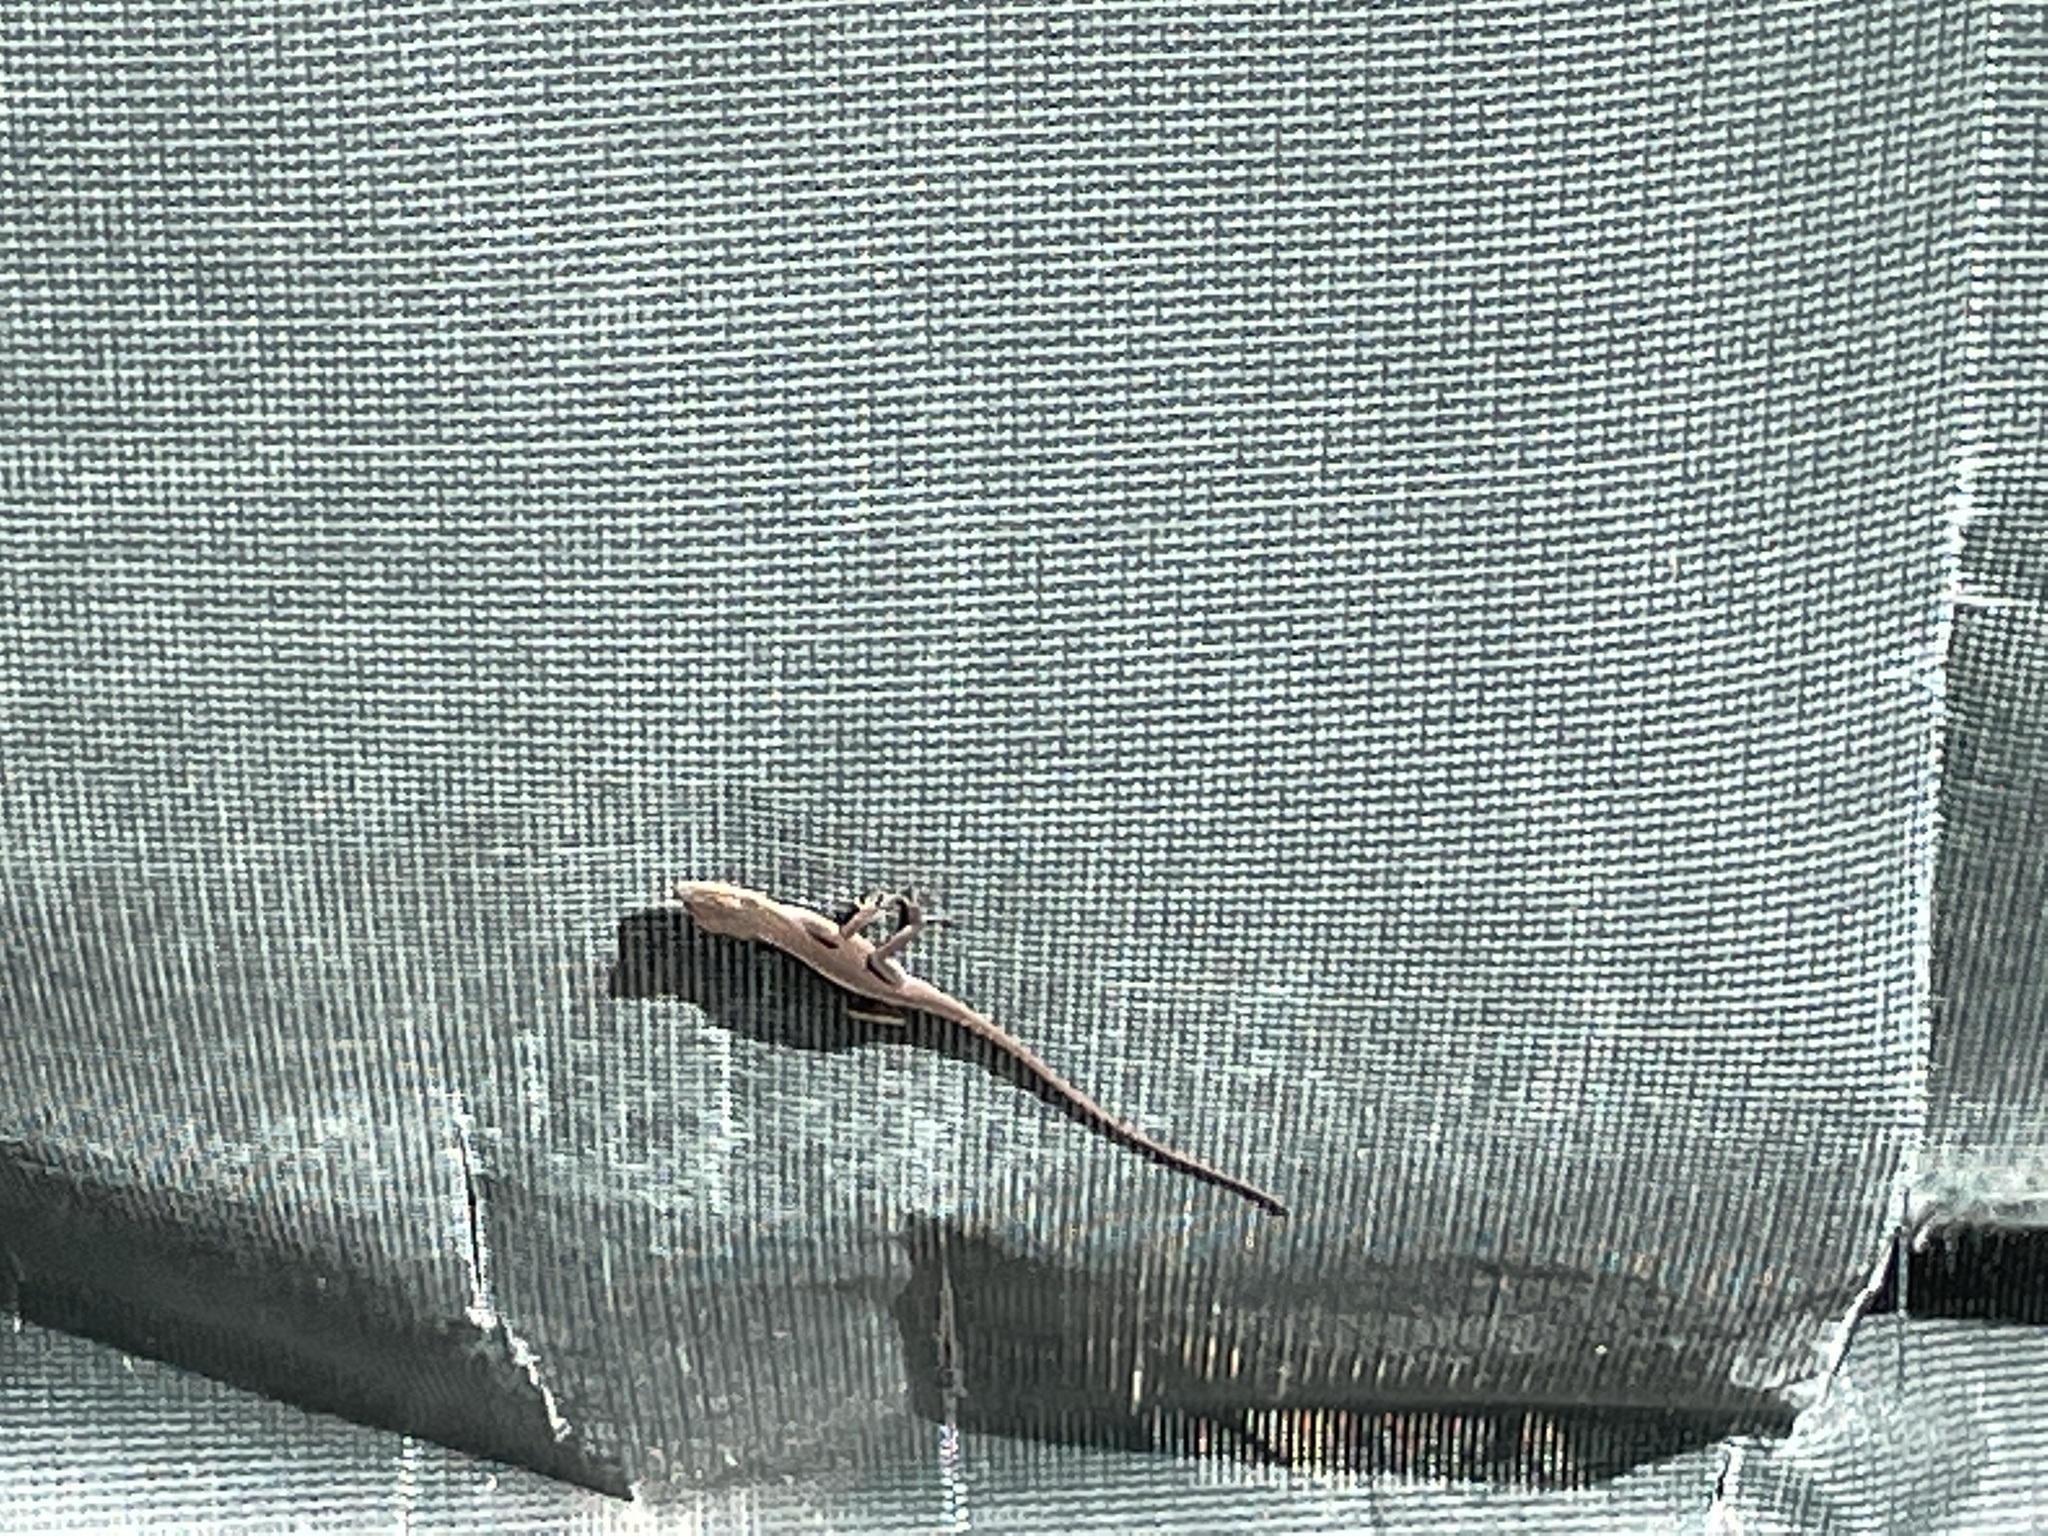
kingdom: Animalia
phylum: Chordata
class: Squamata
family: Dactyloidae
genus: Anolis
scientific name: Anolis carolinensis
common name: Green anole
